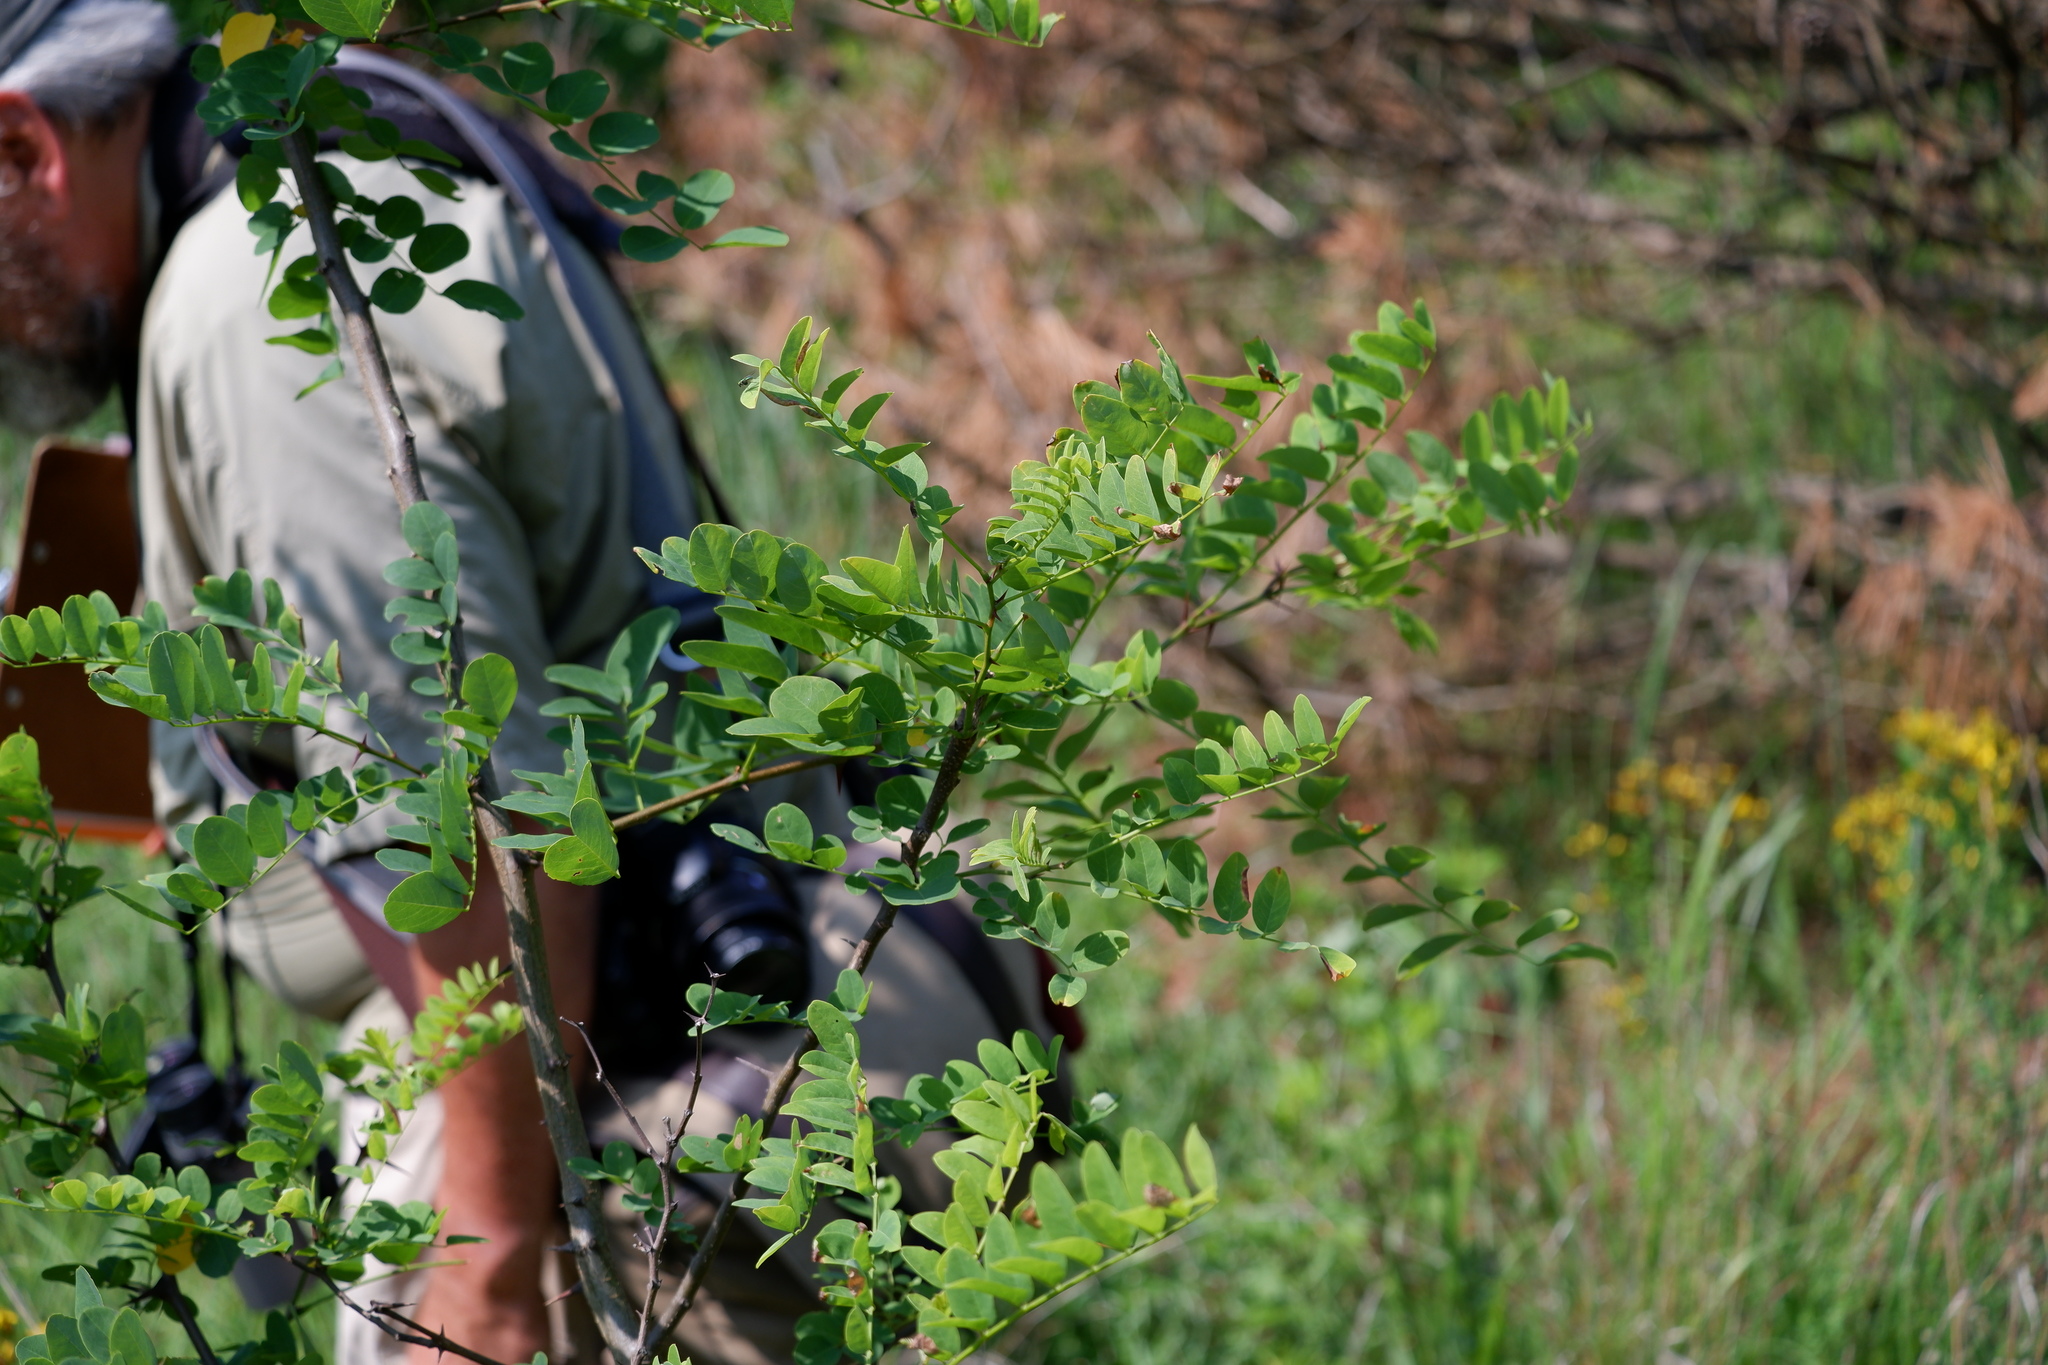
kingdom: Plantae
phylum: Tracheophyta
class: Magnoliopsida
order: Fabales
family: Fabaceae
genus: Robinia
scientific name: Robinia pseudoacacia
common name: Black locust
